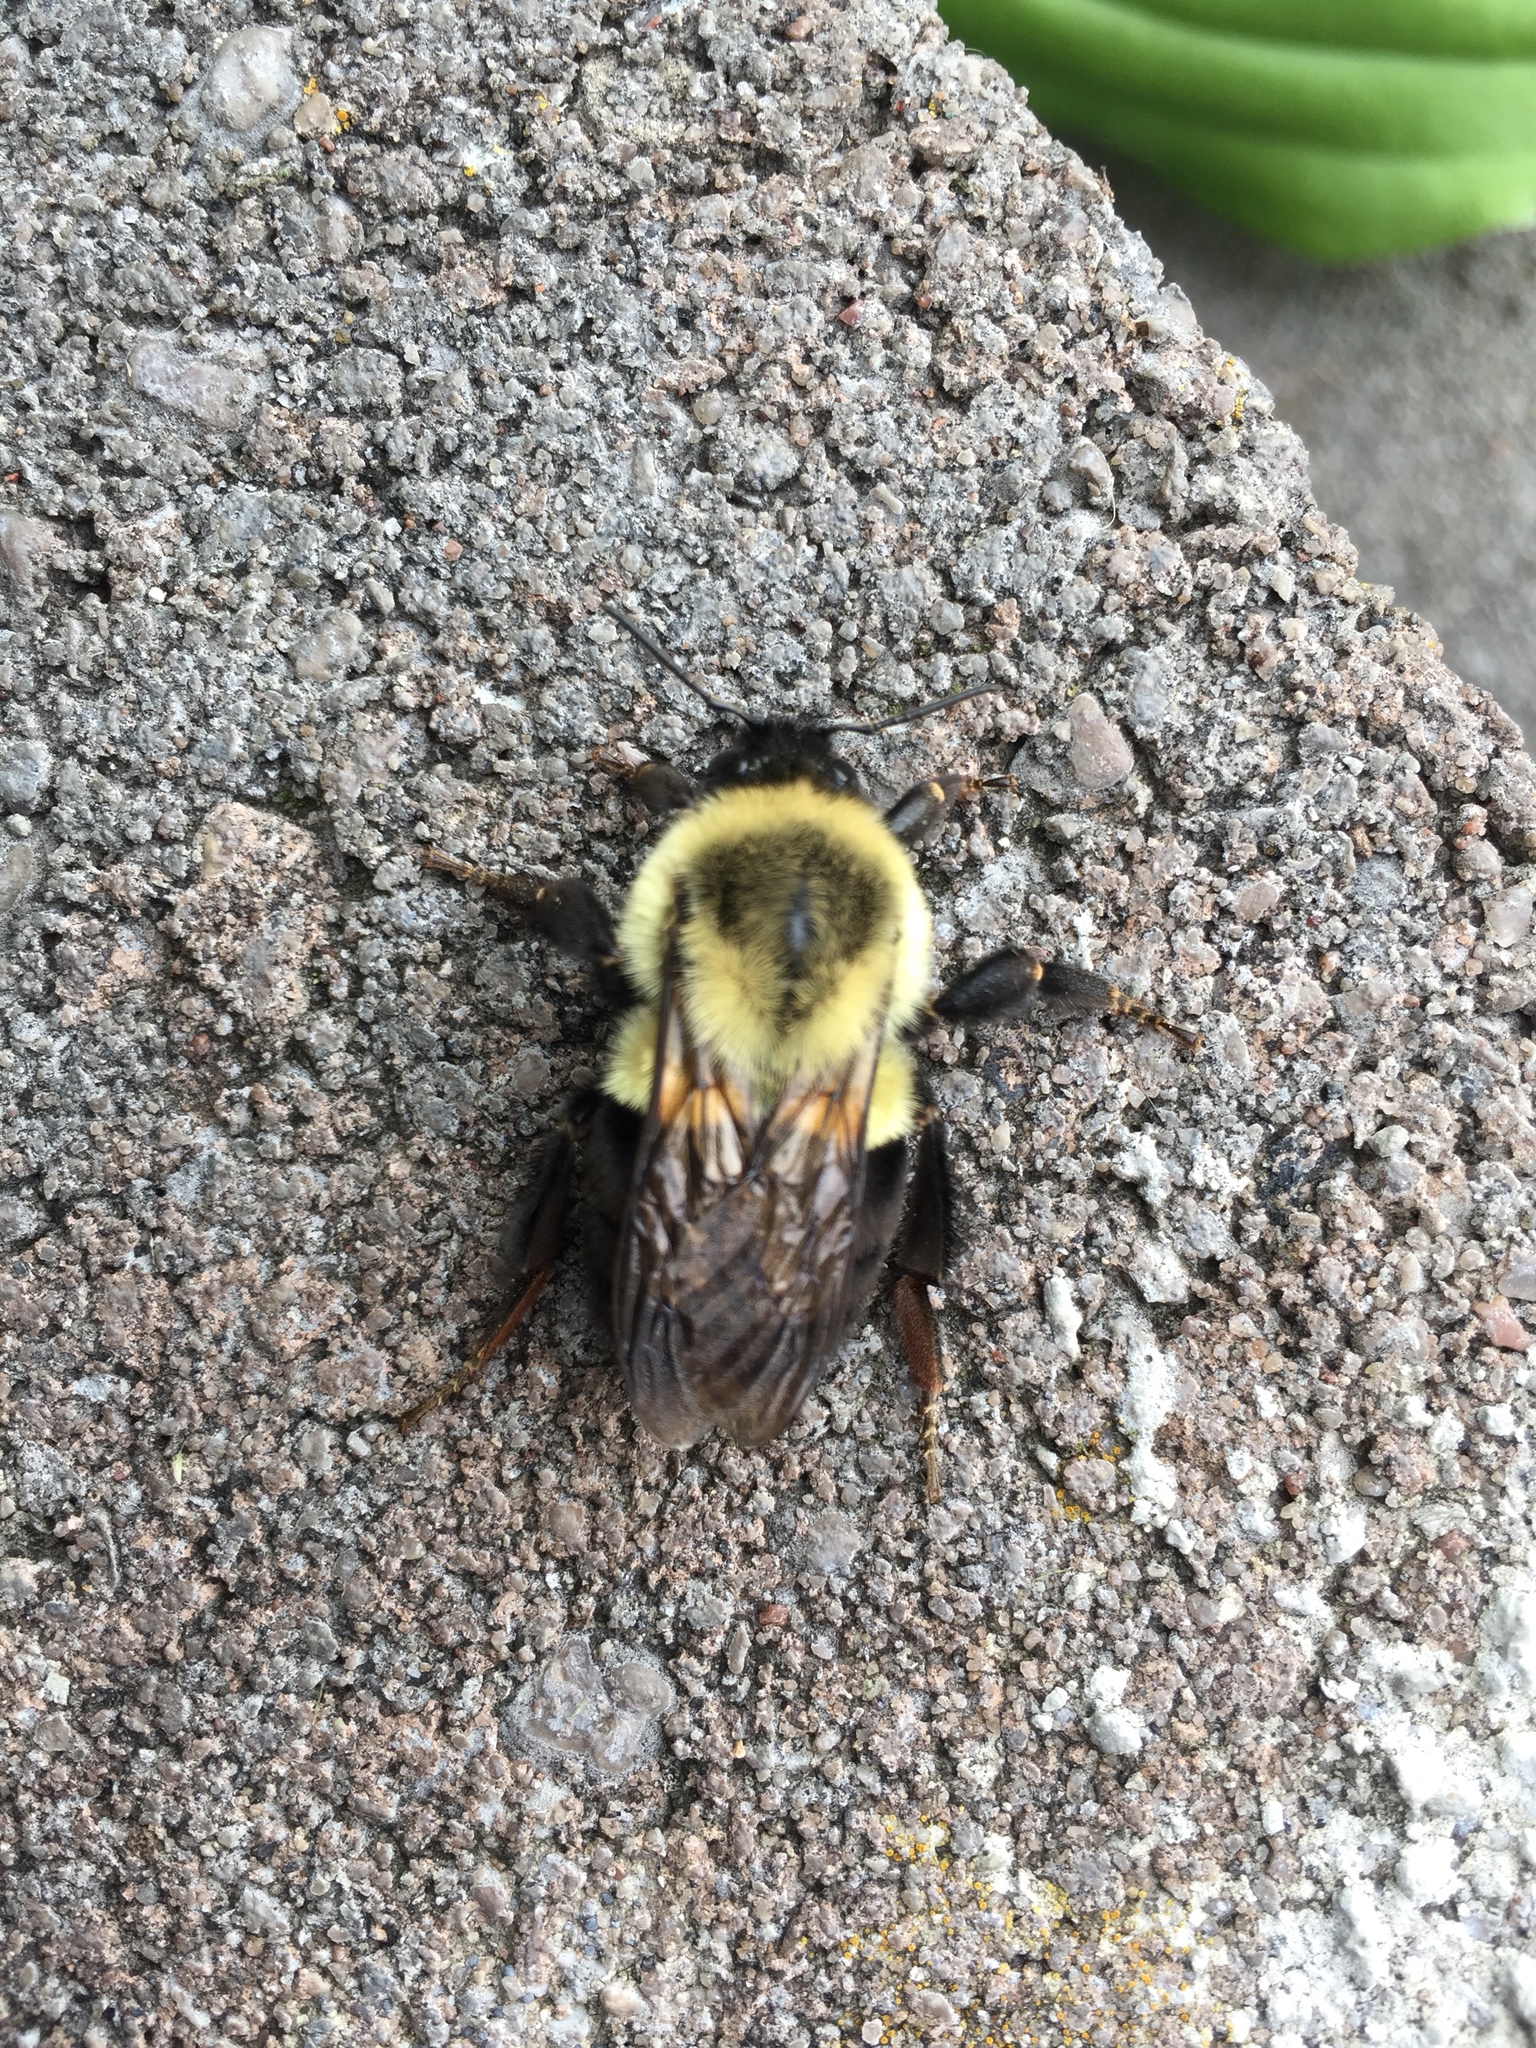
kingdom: Animalia
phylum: Arthropoda
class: Insecta
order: Hymenoptera
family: Apidae
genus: Bombus
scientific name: Bombus impatiens
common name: Common eastern bumble bee
